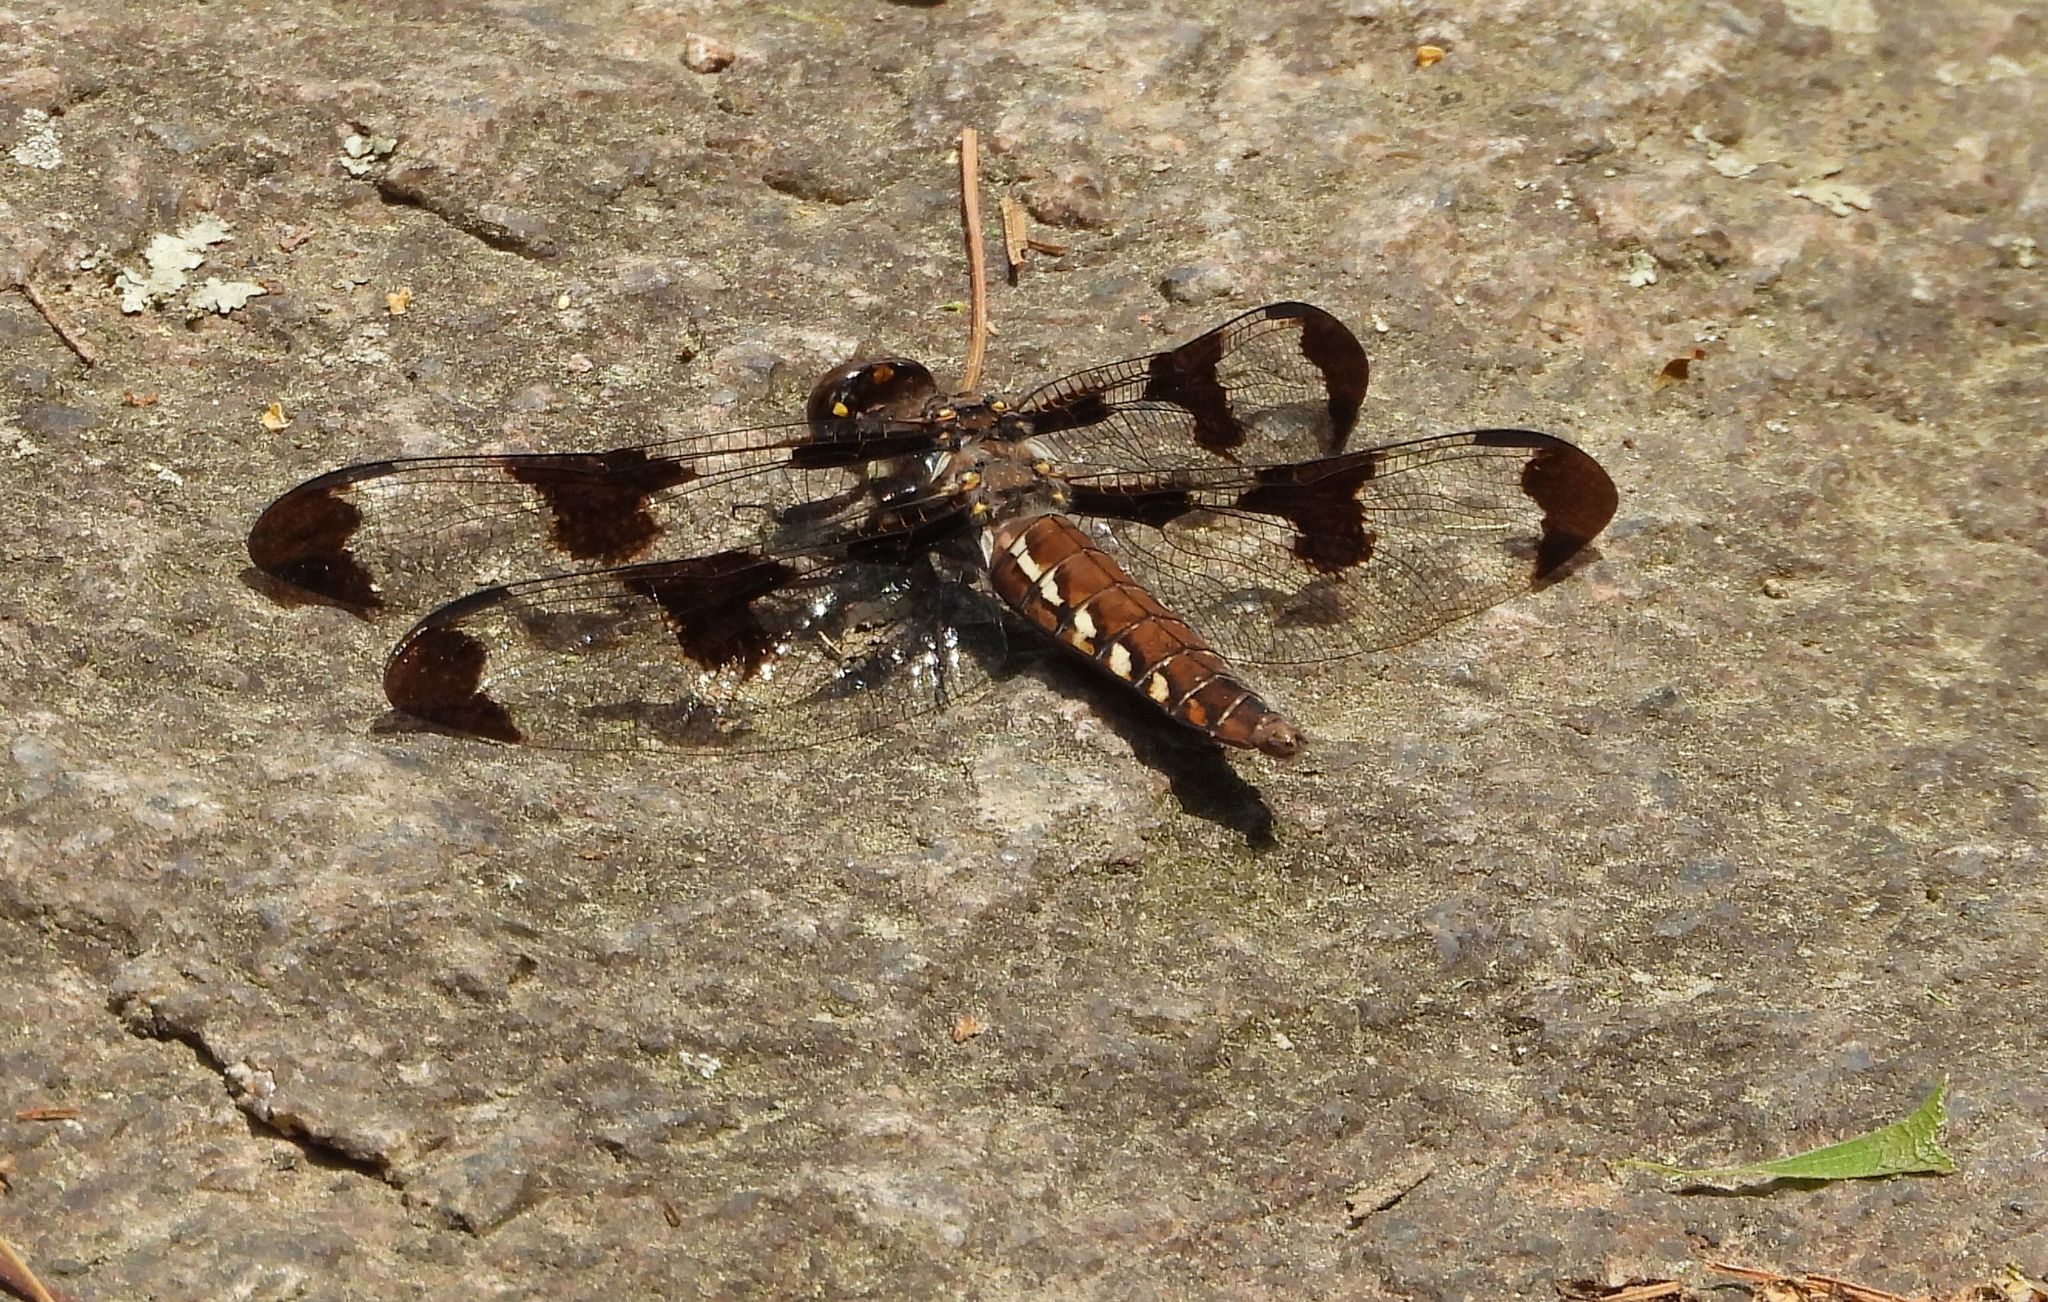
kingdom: Animalia
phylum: Arthropoda
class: Insecta
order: Odonata
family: Libellulidae
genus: Plathemis
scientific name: Plathemis lydia
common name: Common whitetail
